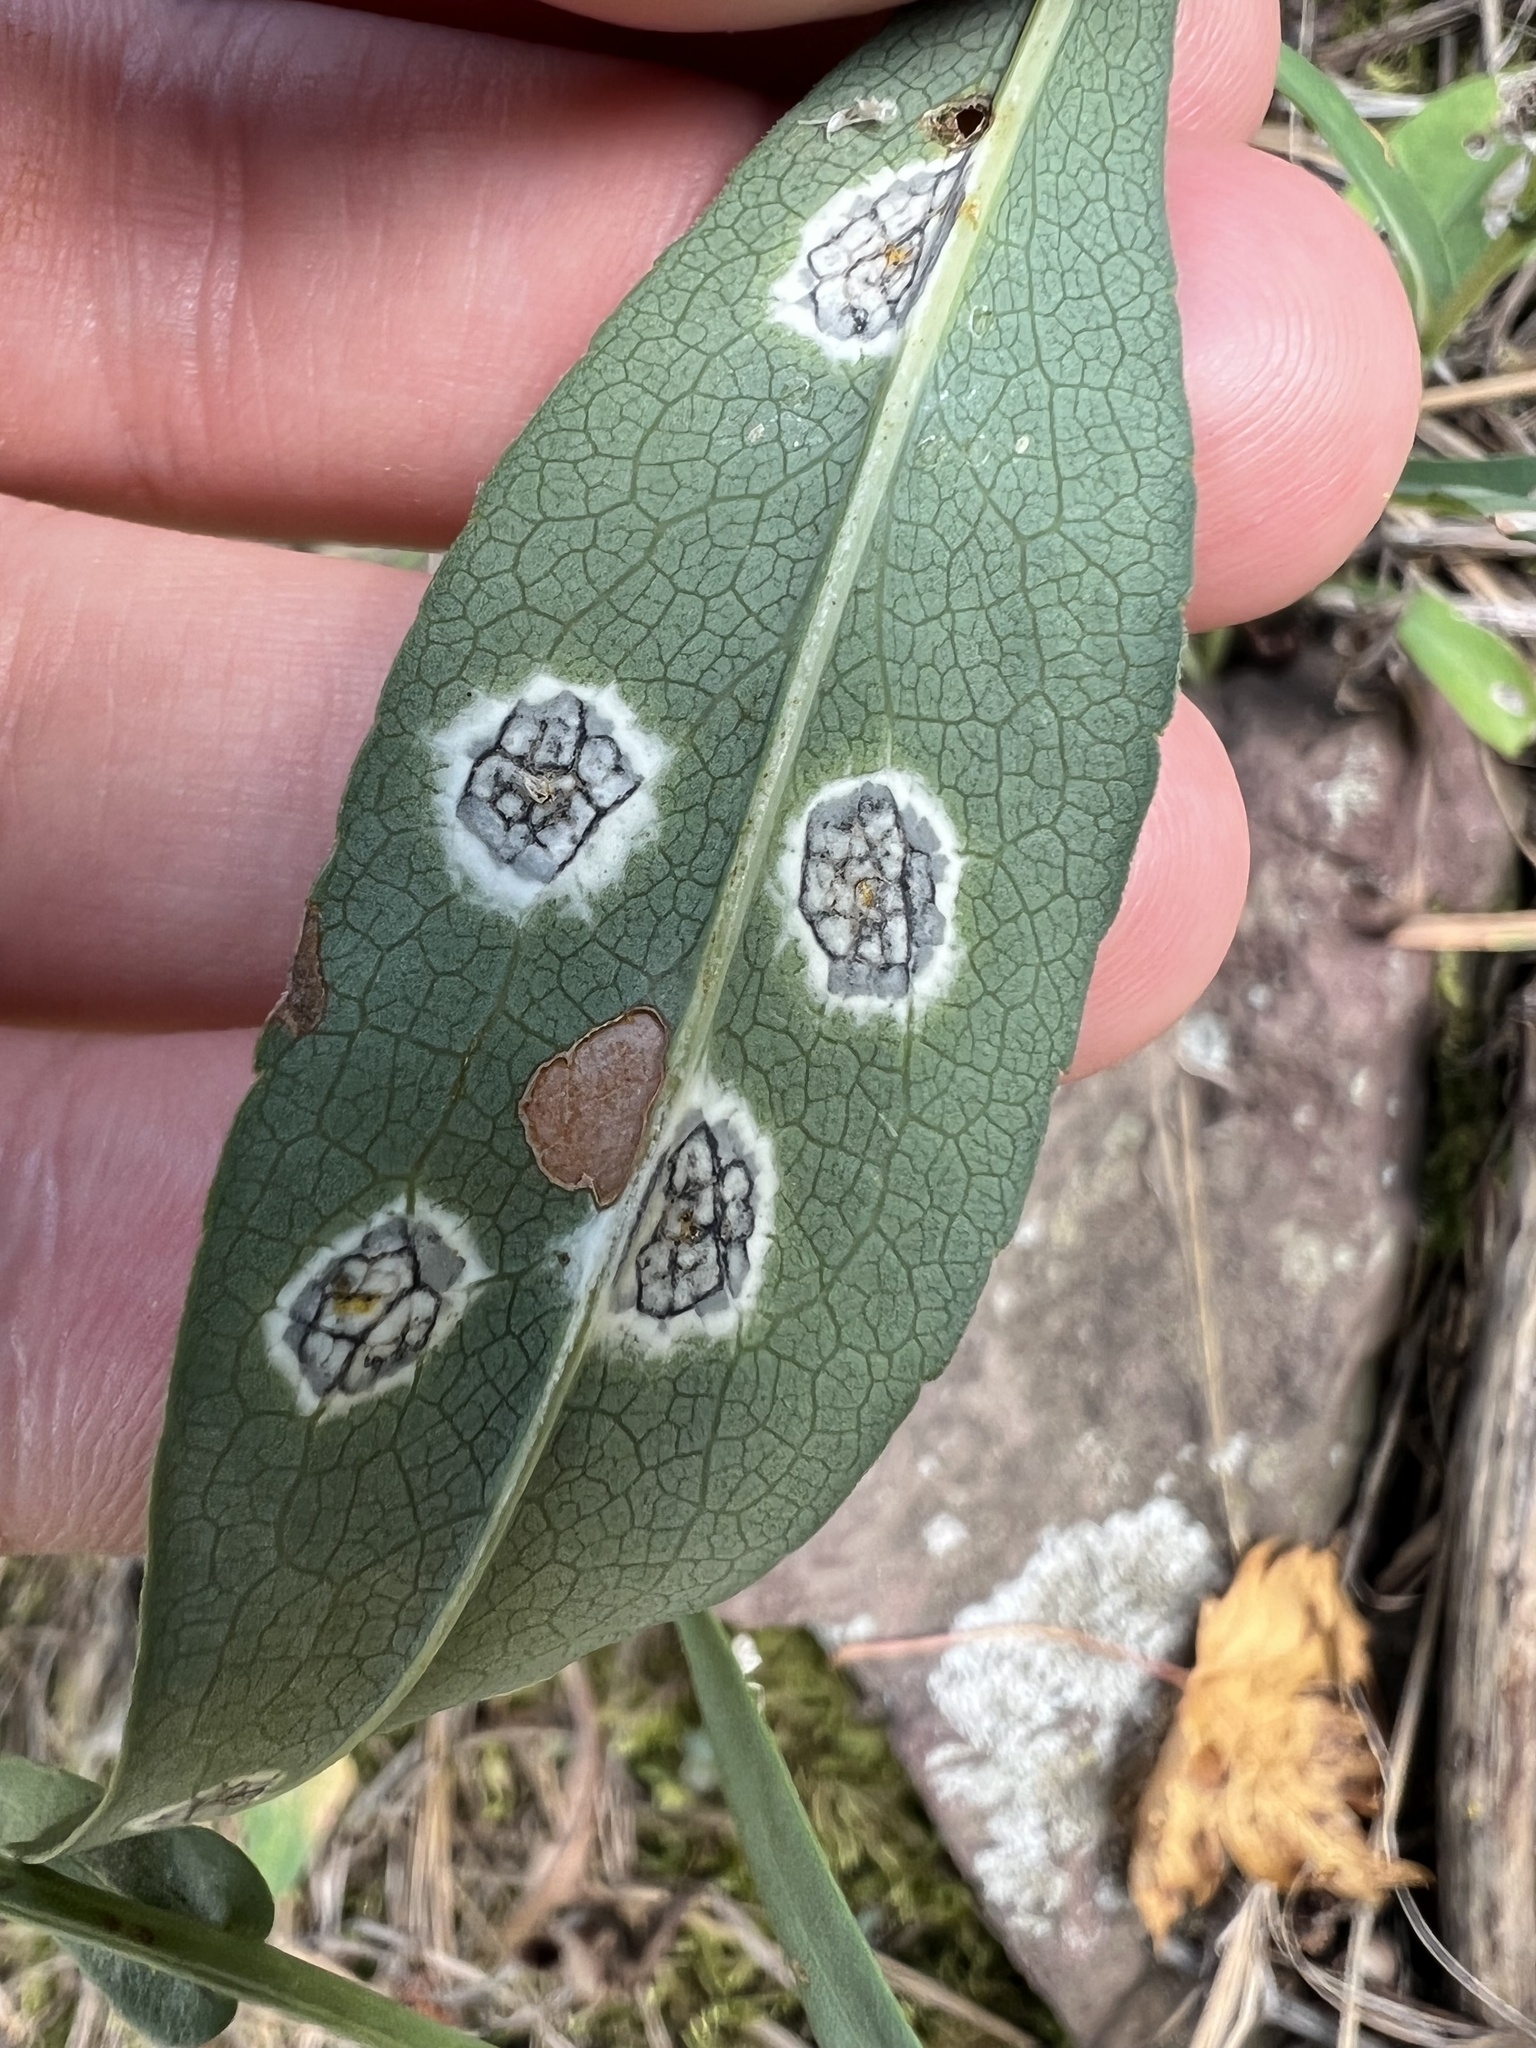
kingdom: Animalia
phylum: Arthropoda
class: Insecta
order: Diptera
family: Cecidomyiidae
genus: Asteromyia
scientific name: Asteromyia laeviana
